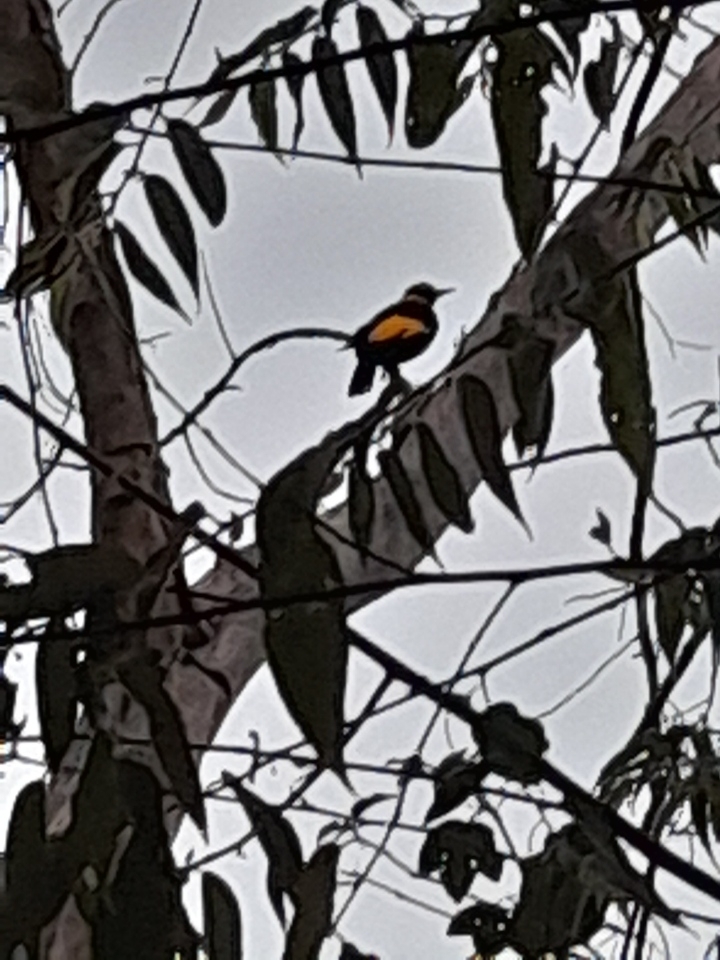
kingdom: Animalia
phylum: Chordata
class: Aves
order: Passeriformes
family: Ptilonorhynchidae
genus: Sericulus
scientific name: Sericulus chrysocephalus
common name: Regent bowerbird
